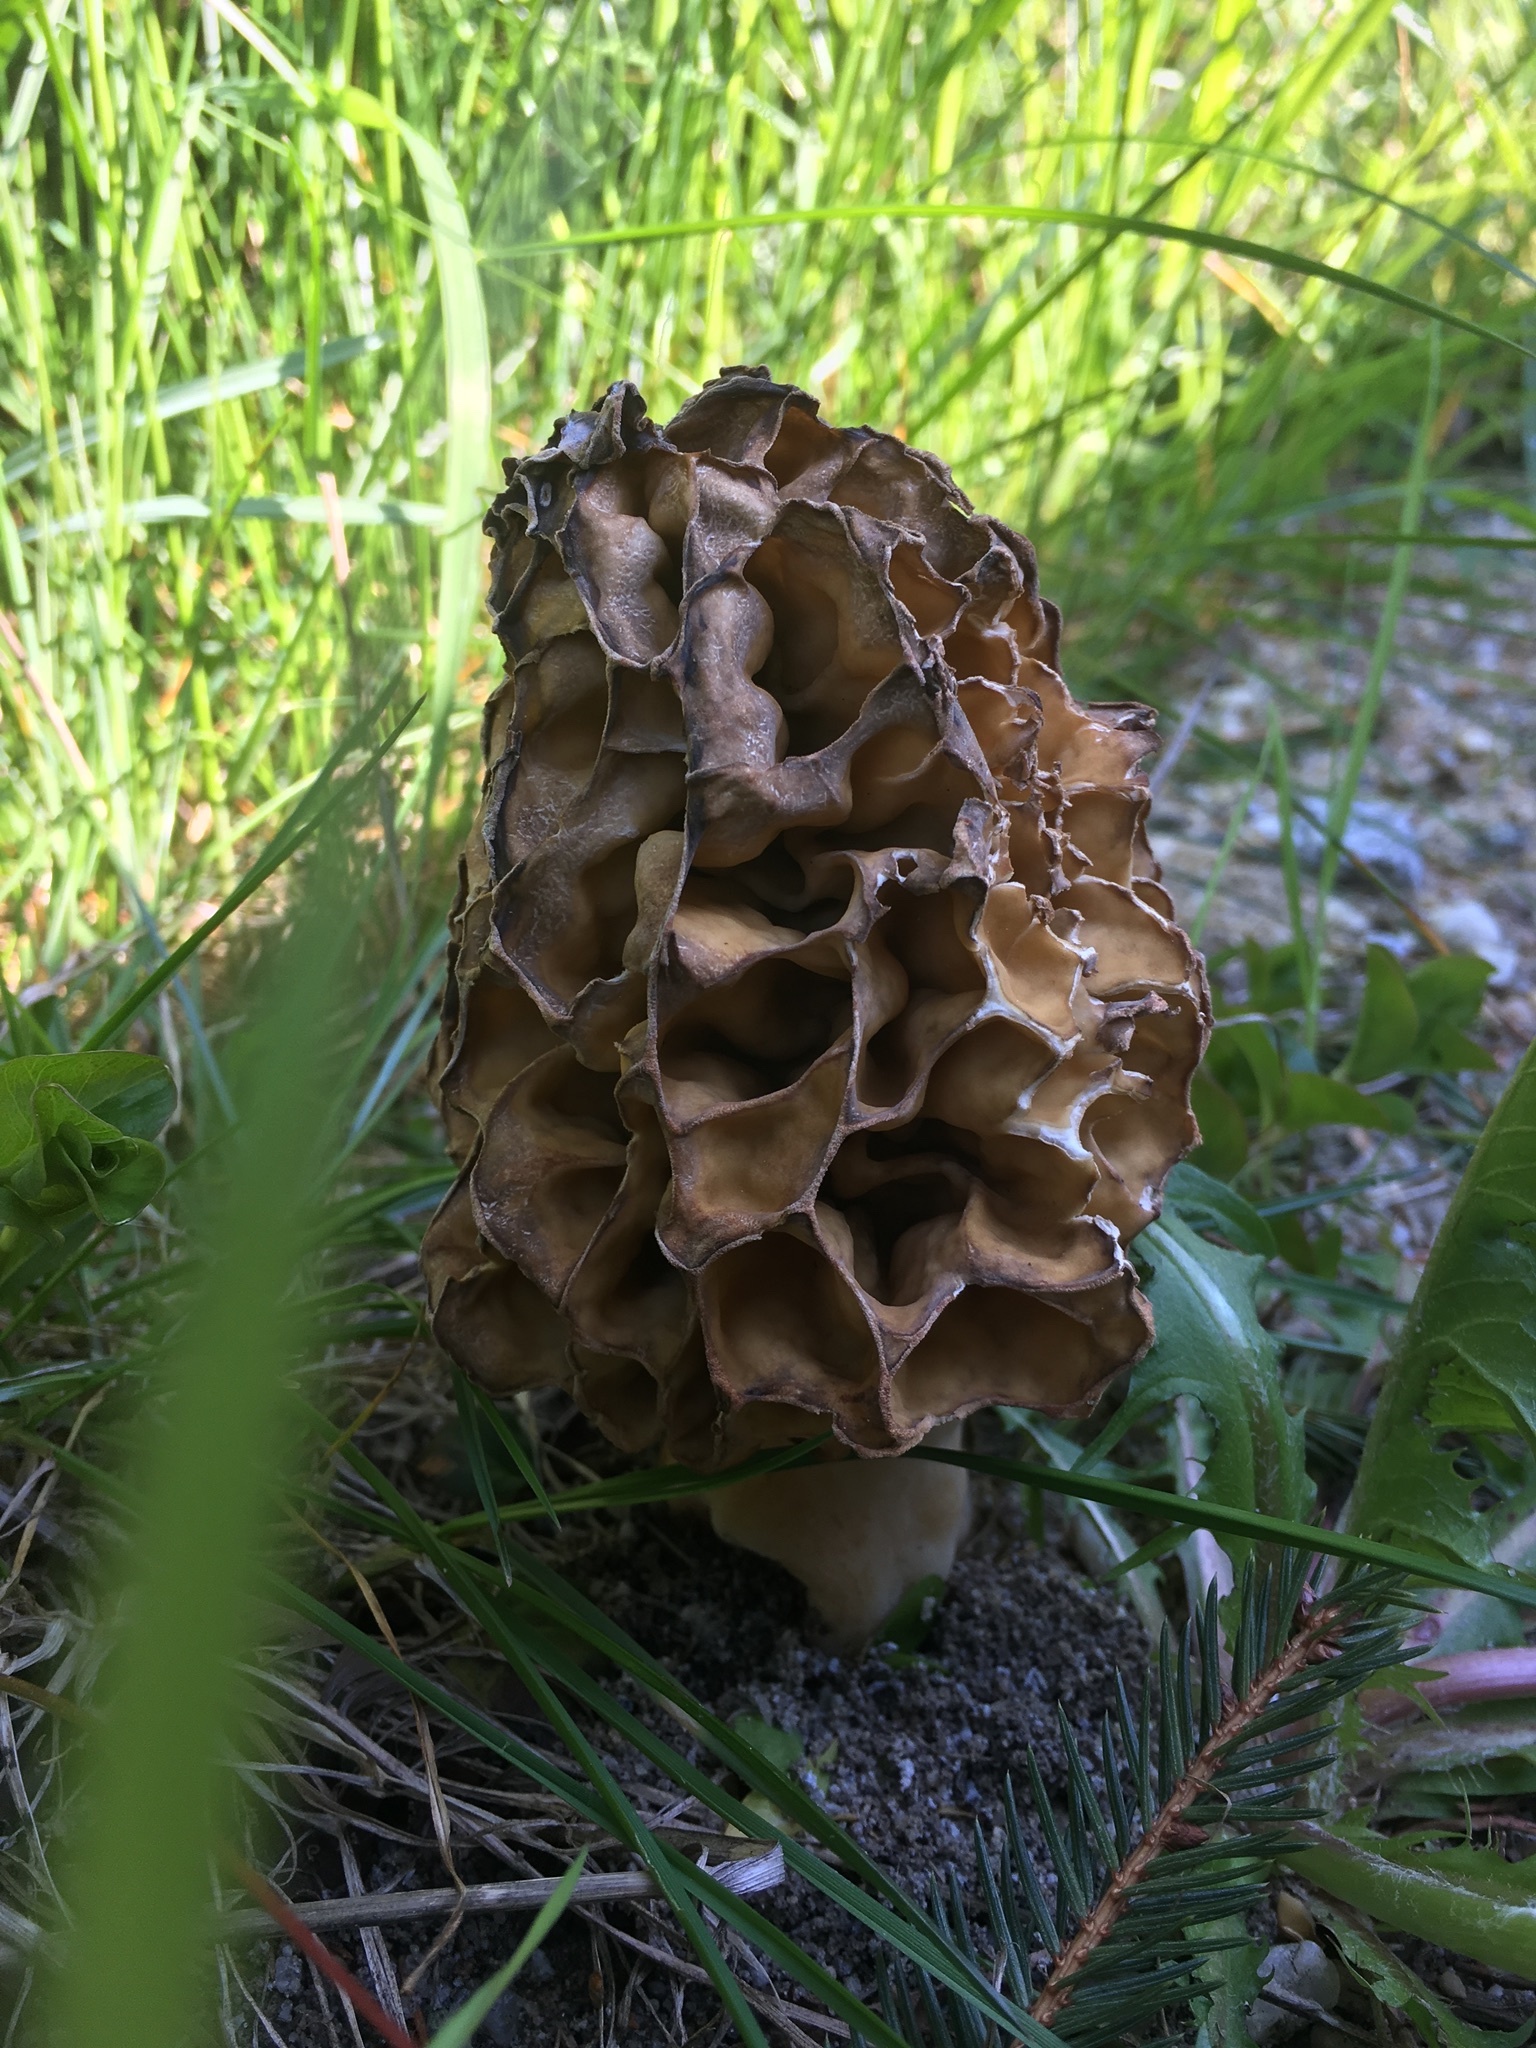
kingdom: Fungi
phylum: Ascomycota
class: Pezizomycetes
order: Pezizales
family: Morchellaceae
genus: Morchella
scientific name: Morchella esculenta
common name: Morel
